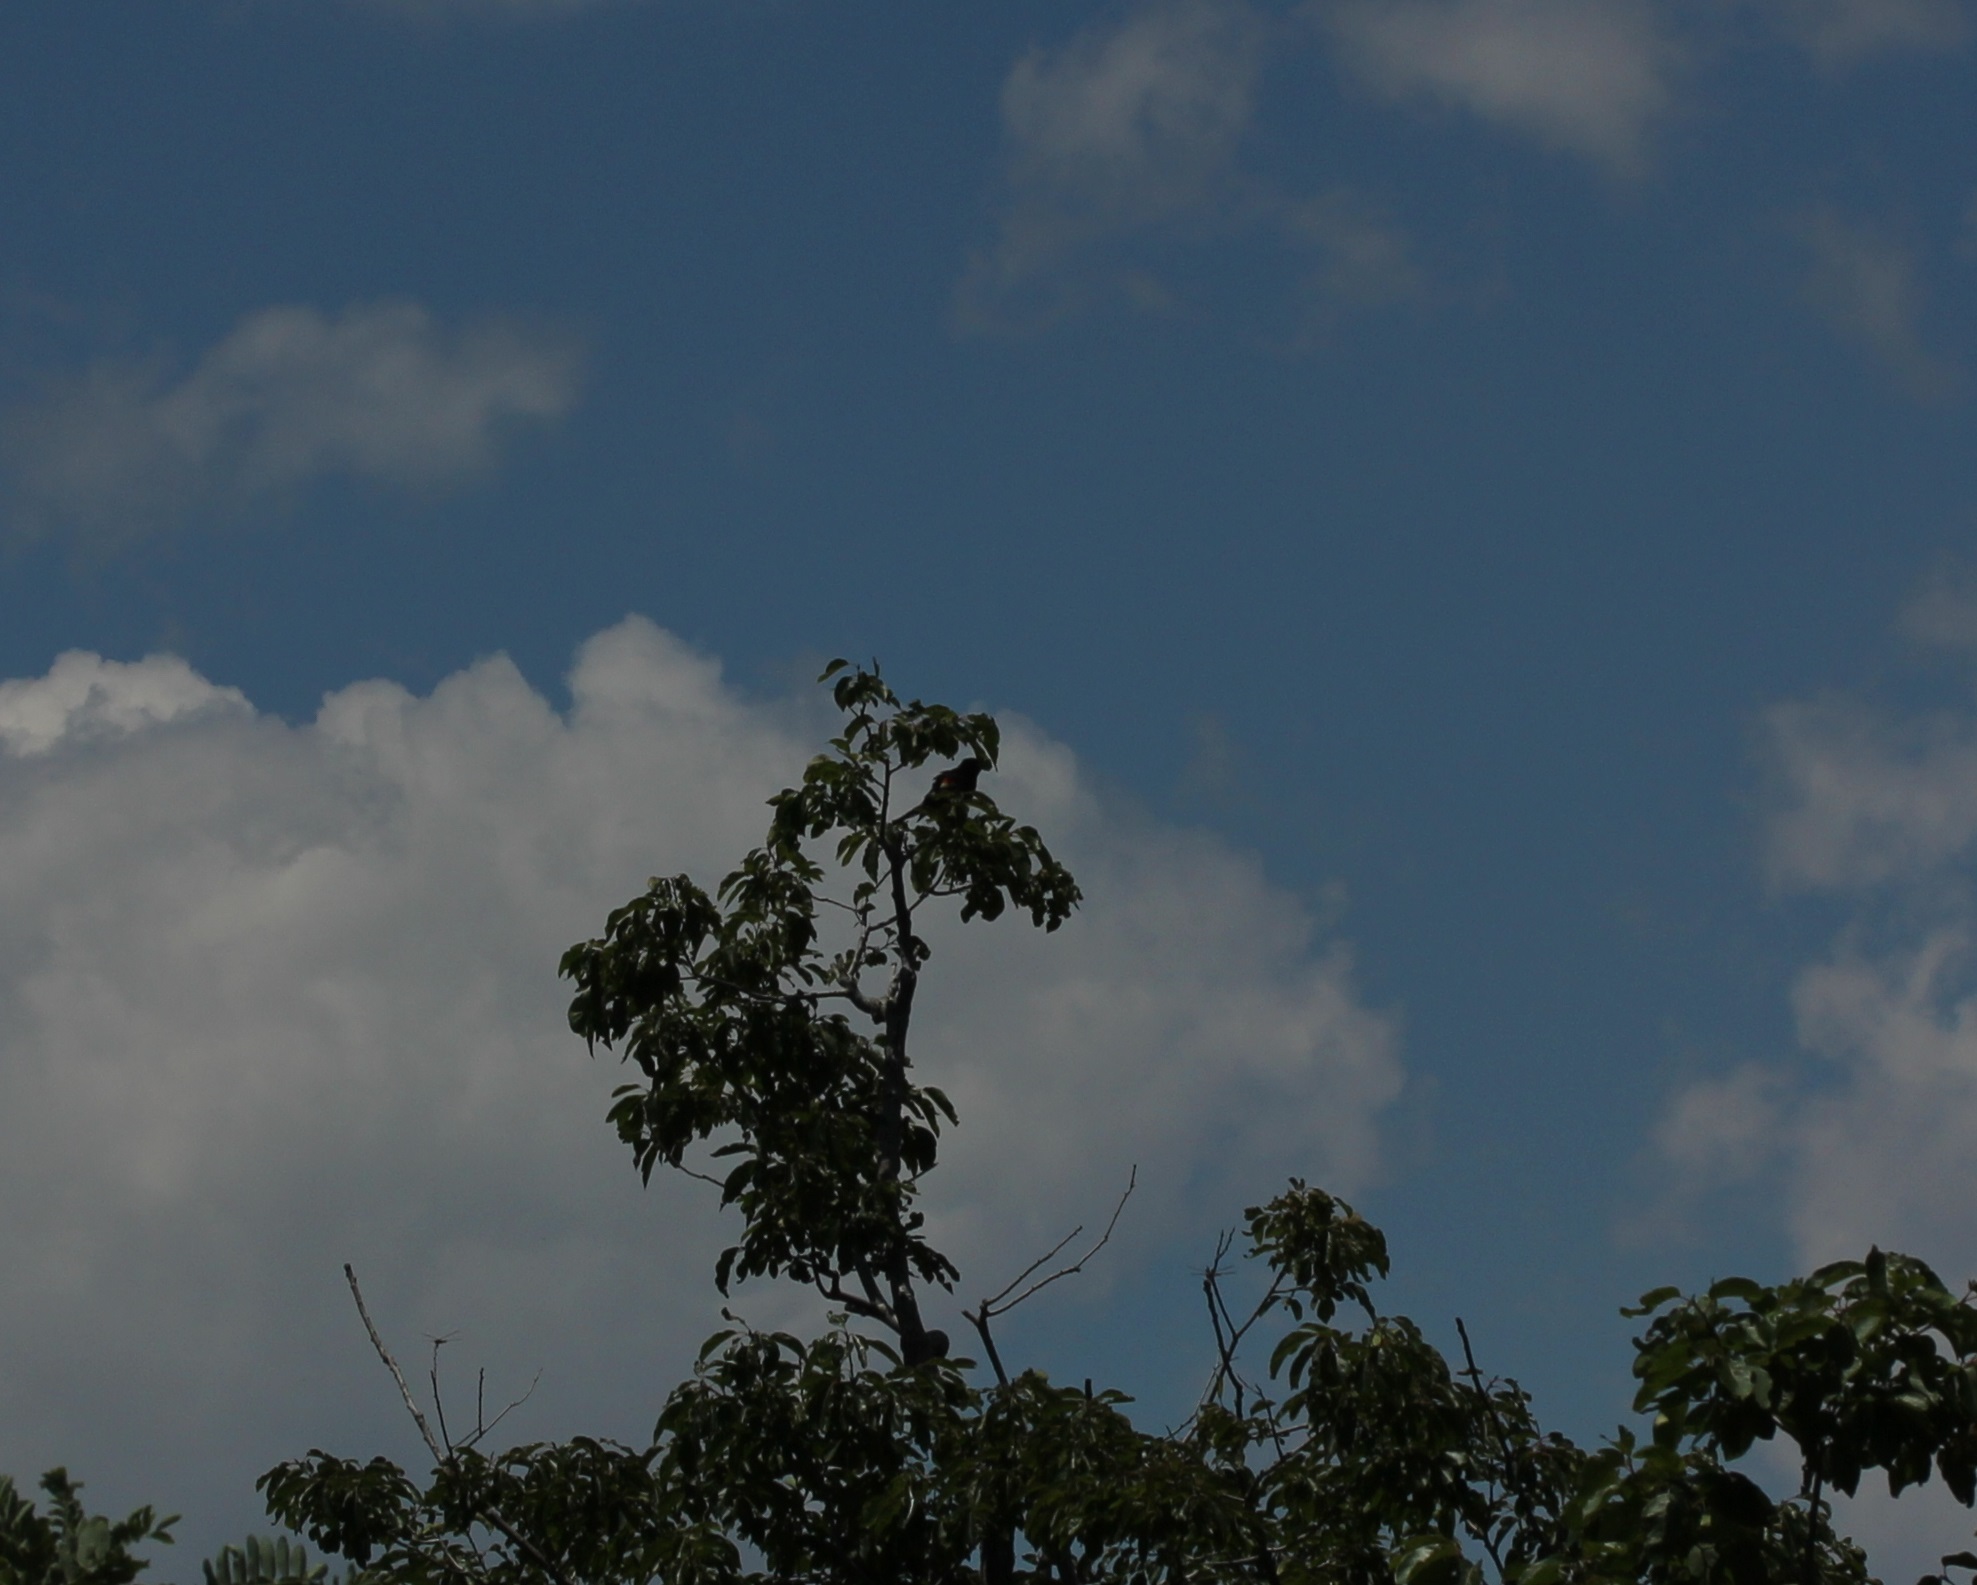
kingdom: Animalia
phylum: Chordata
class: Aves
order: Passeriformes
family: Icteridae
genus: Agelaius
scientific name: Agelaius phoeniceus
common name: Red-winged blackbird
